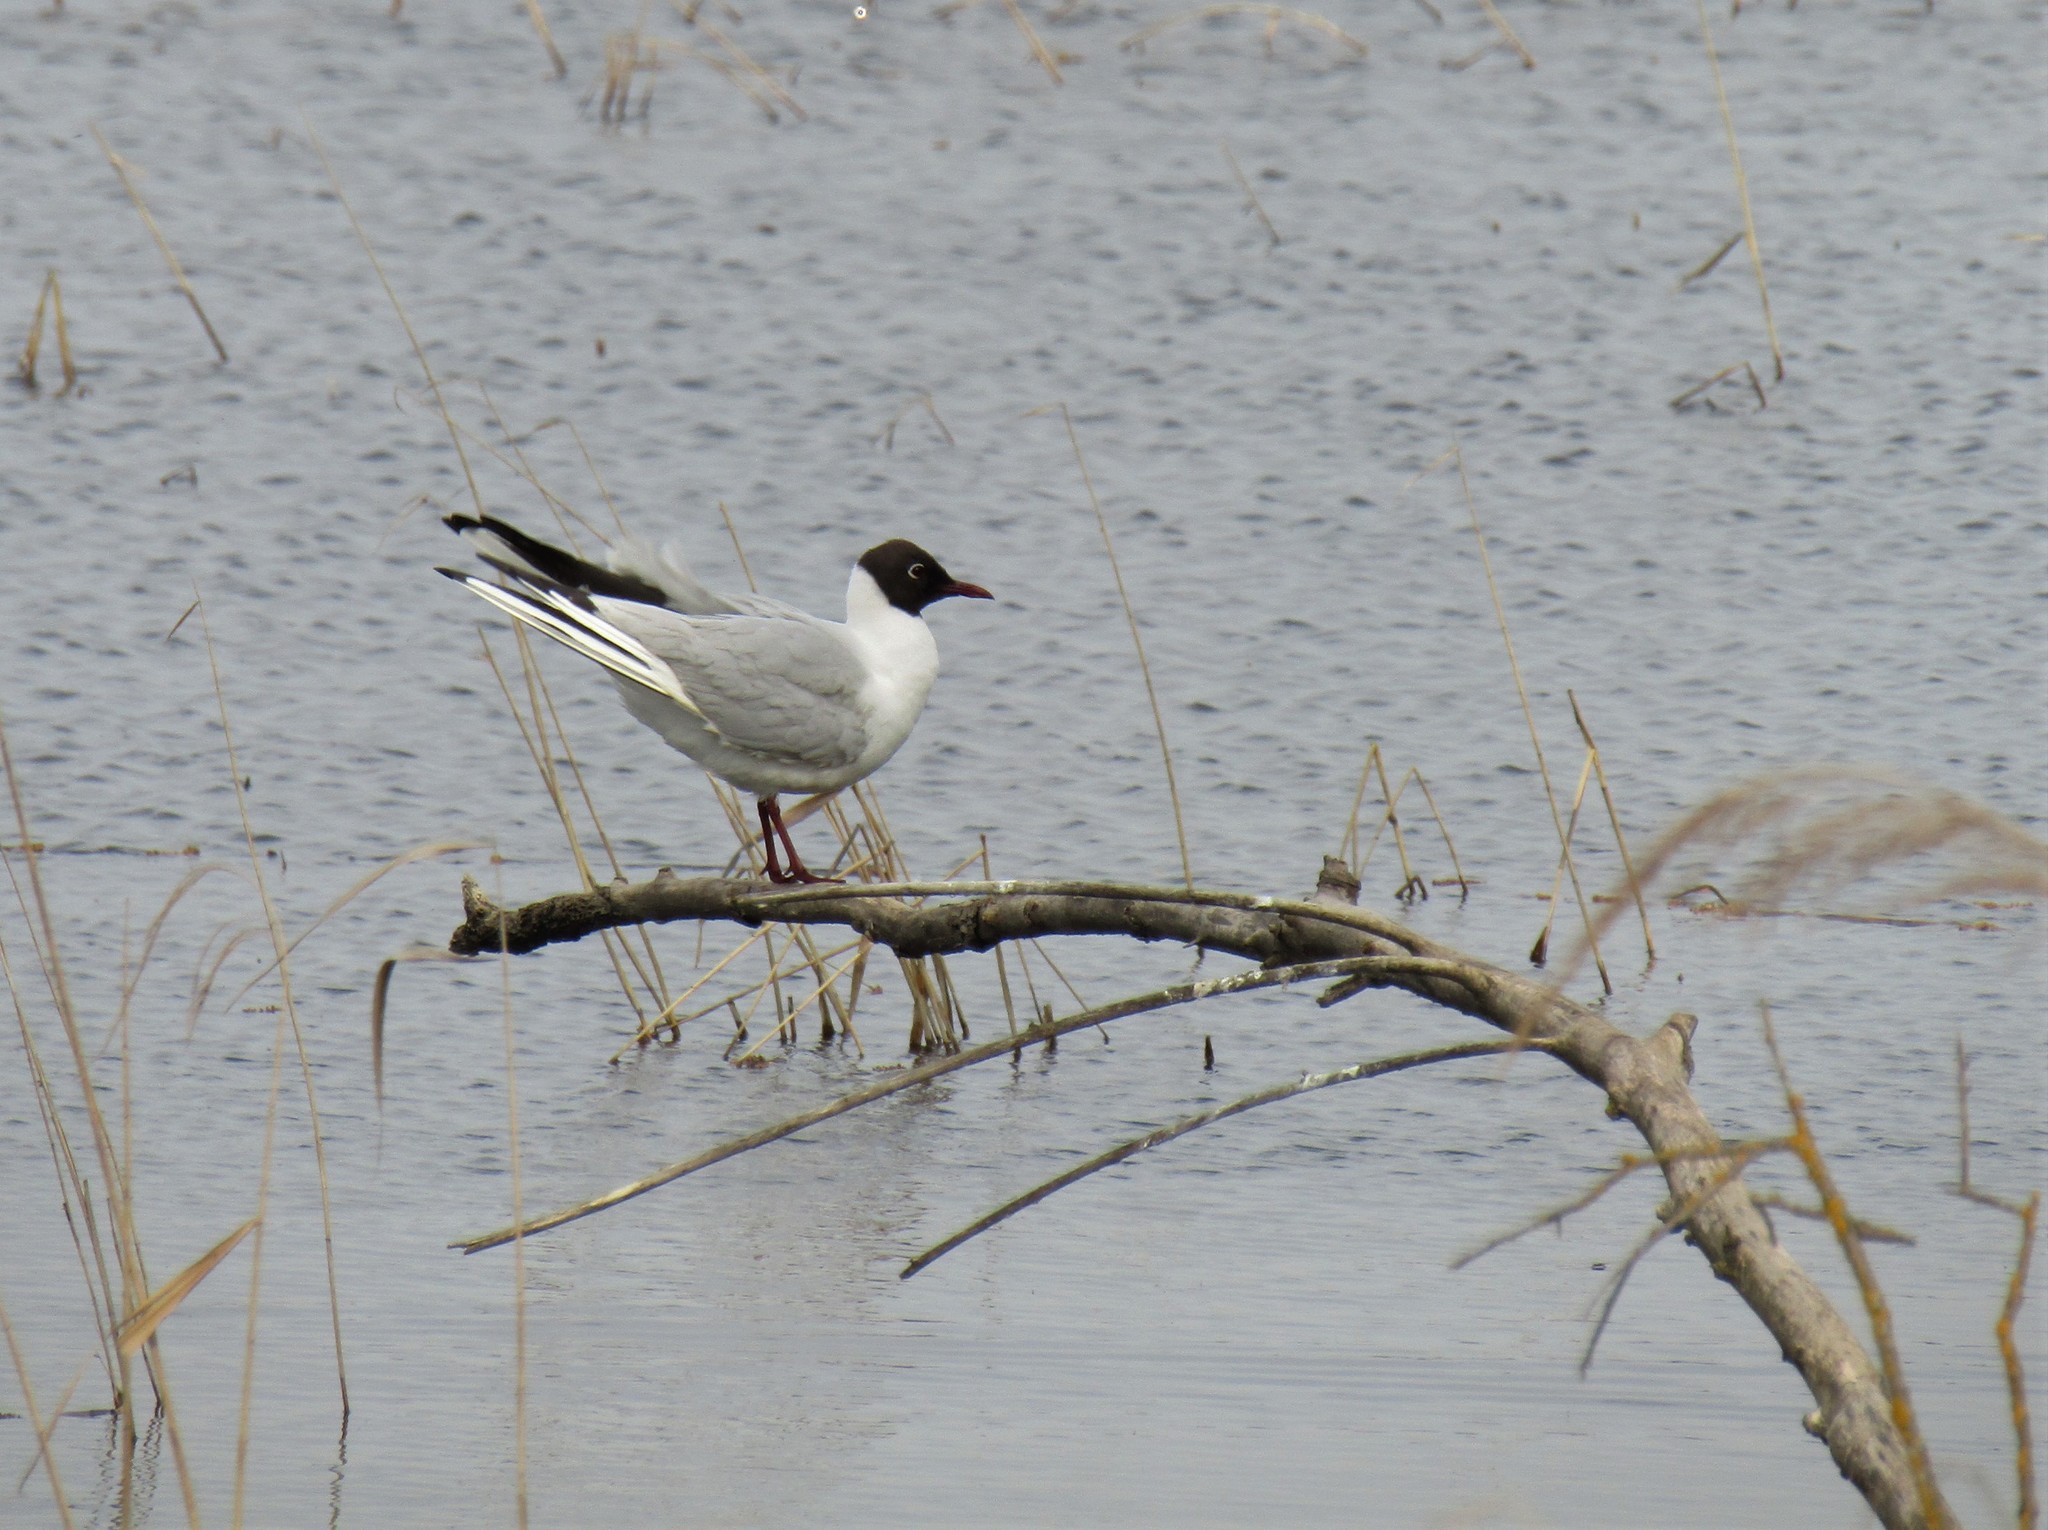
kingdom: Animalia
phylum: Chordata
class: Aves
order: Charadriiformes
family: Laridae
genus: Chroicocephalus
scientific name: Chroicocephalus ridibundus
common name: Black-headed gull
